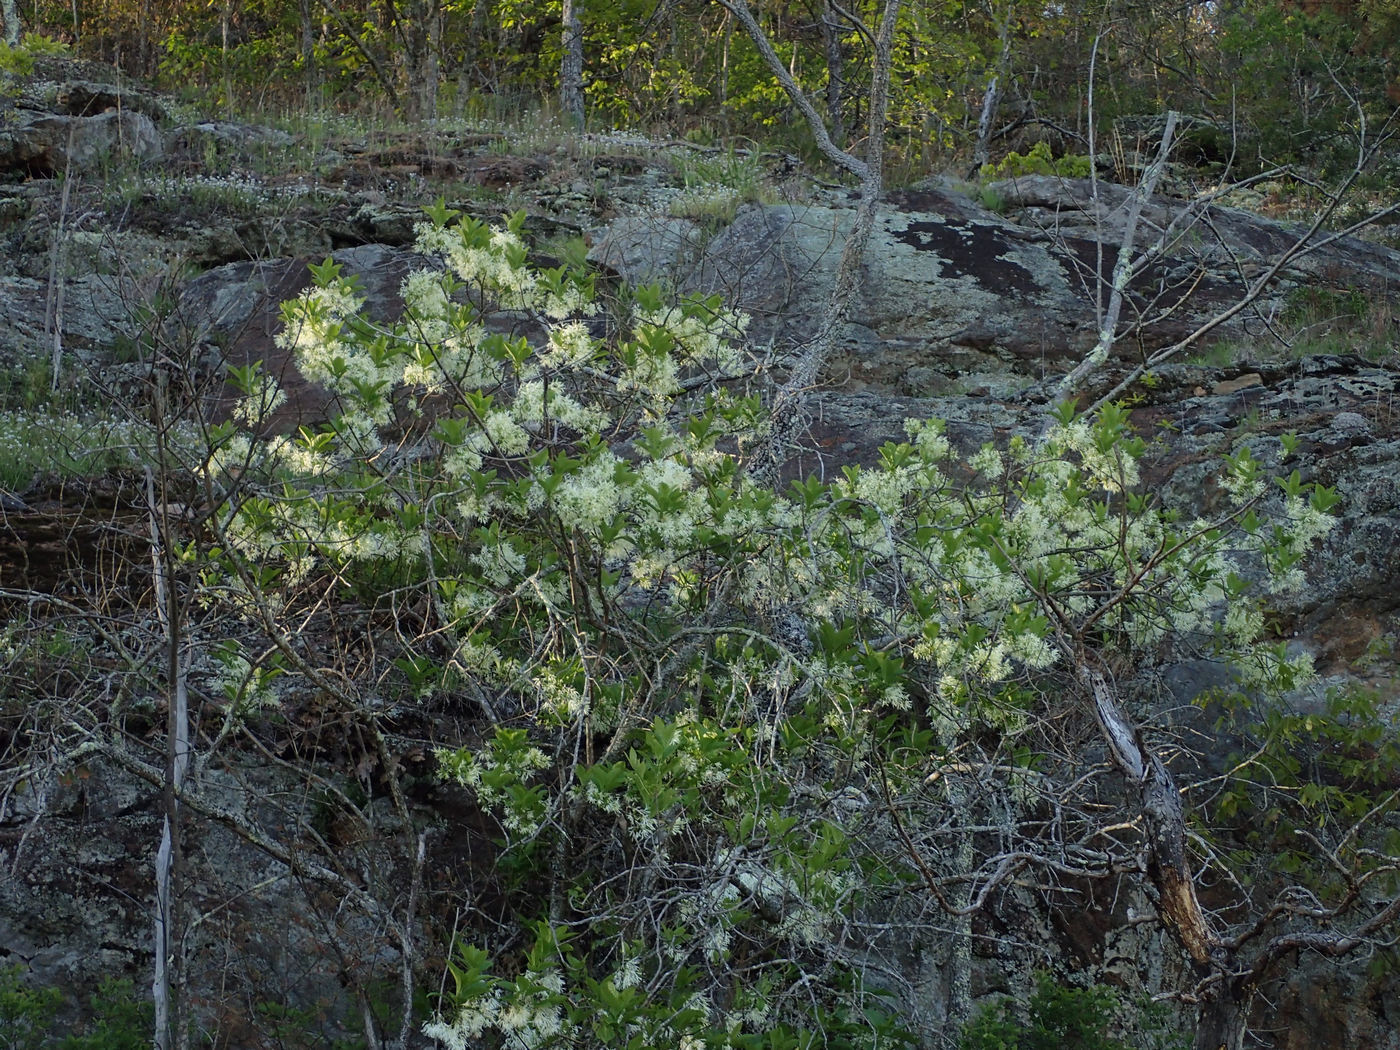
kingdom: Plantae
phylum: Tracheophyta
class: Magnoliopsida
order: Lamiales
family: Oleaceae
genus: Chionanthus
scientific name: Chionanthus virginicus
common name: American fringetree
